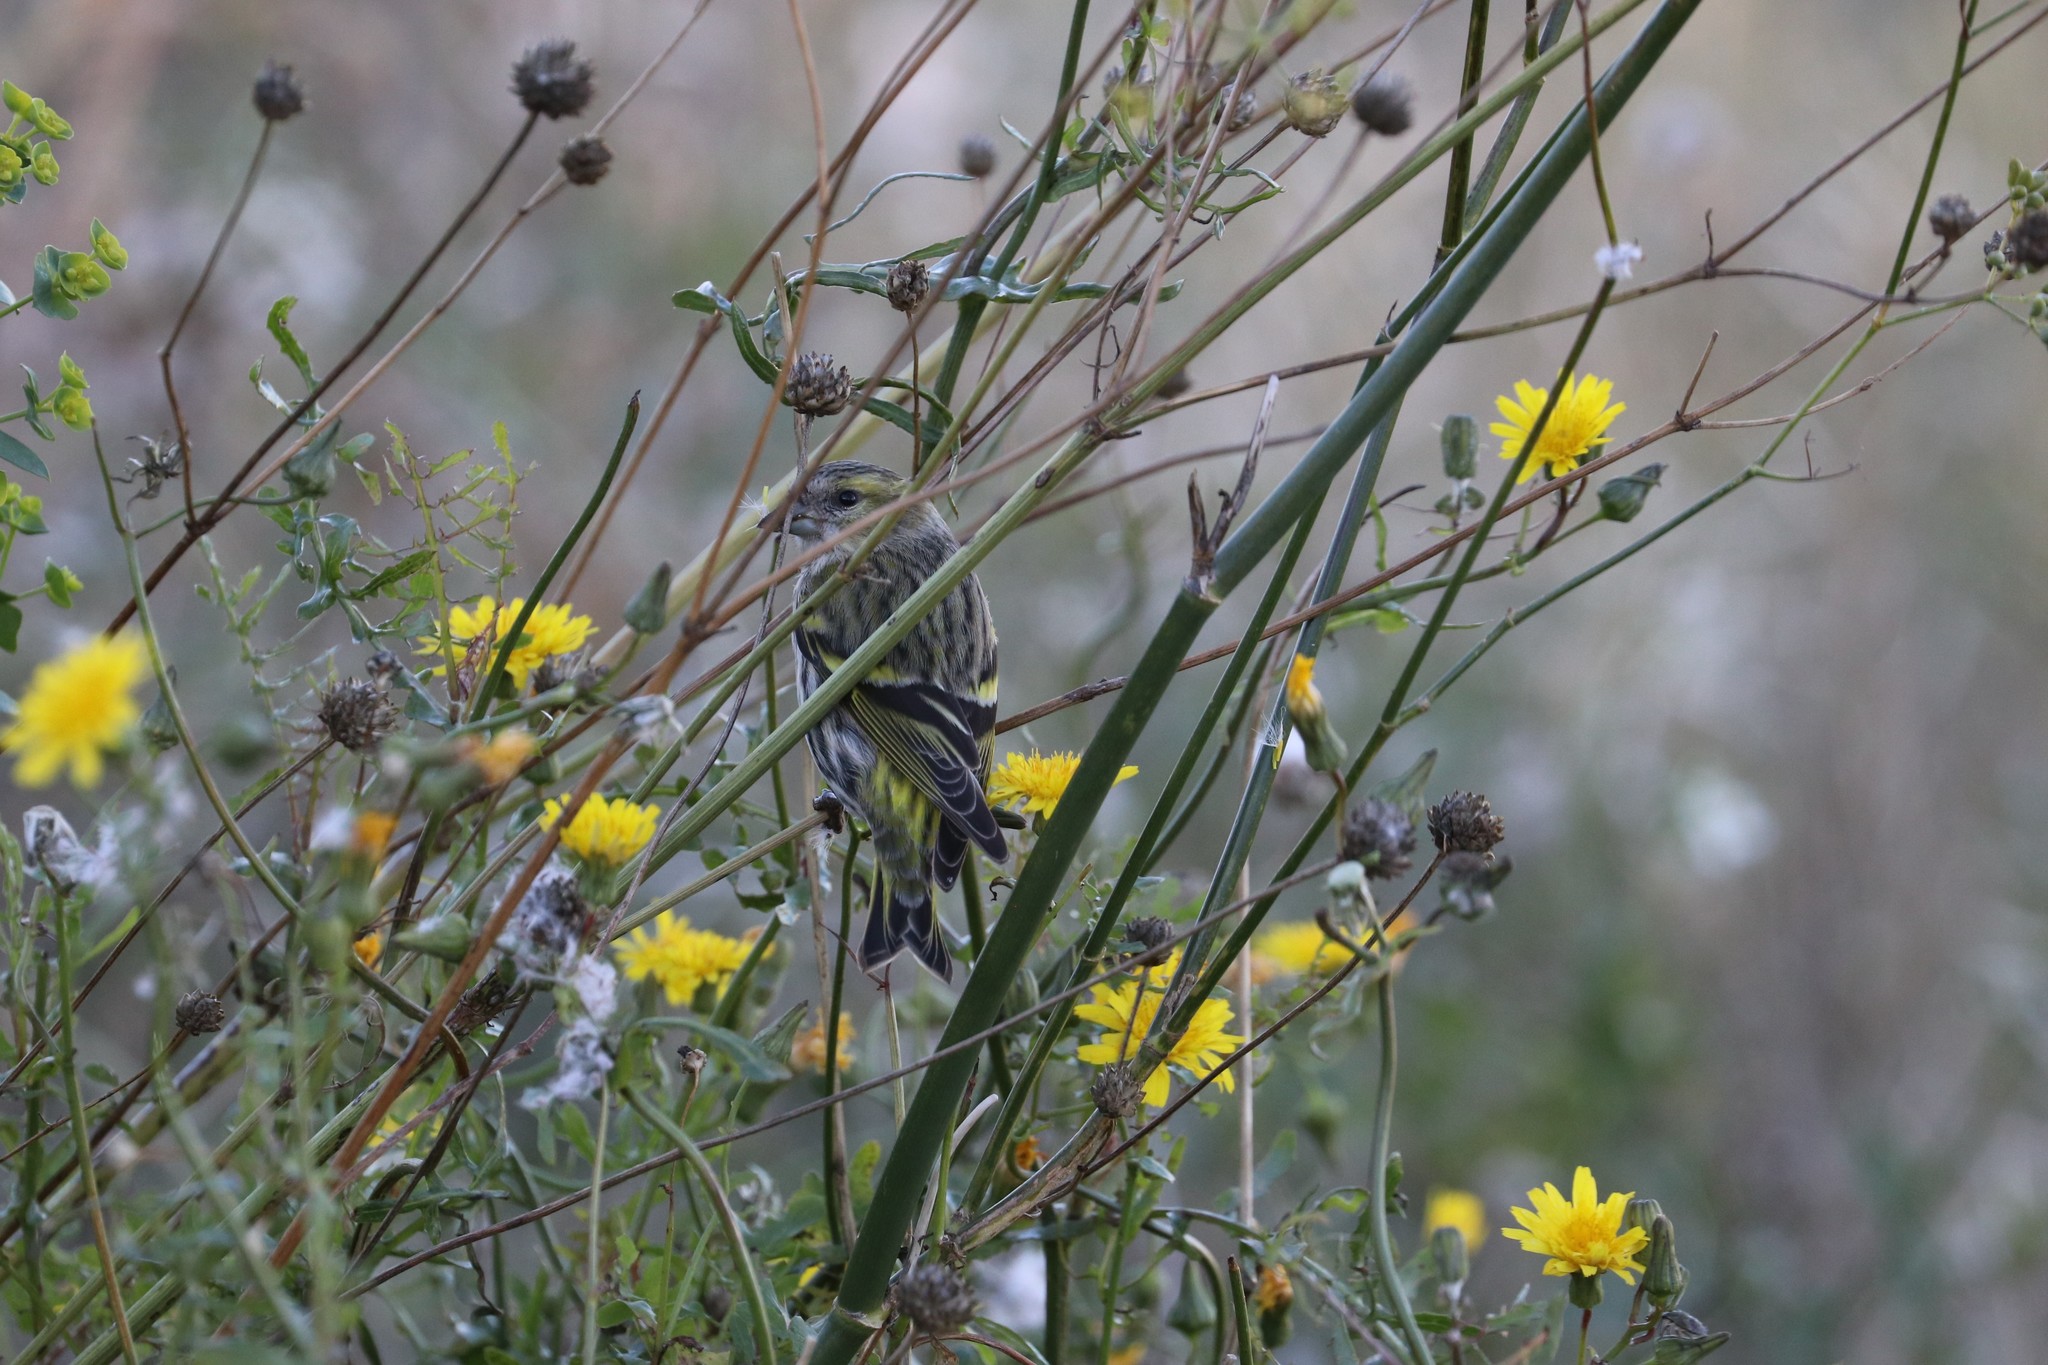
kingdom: Animalia
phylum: Chordata
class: Aves
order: Passeriformes
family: Fringillidae
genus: Spinus
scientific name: Spinus spinus
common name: Eurasian siskin
